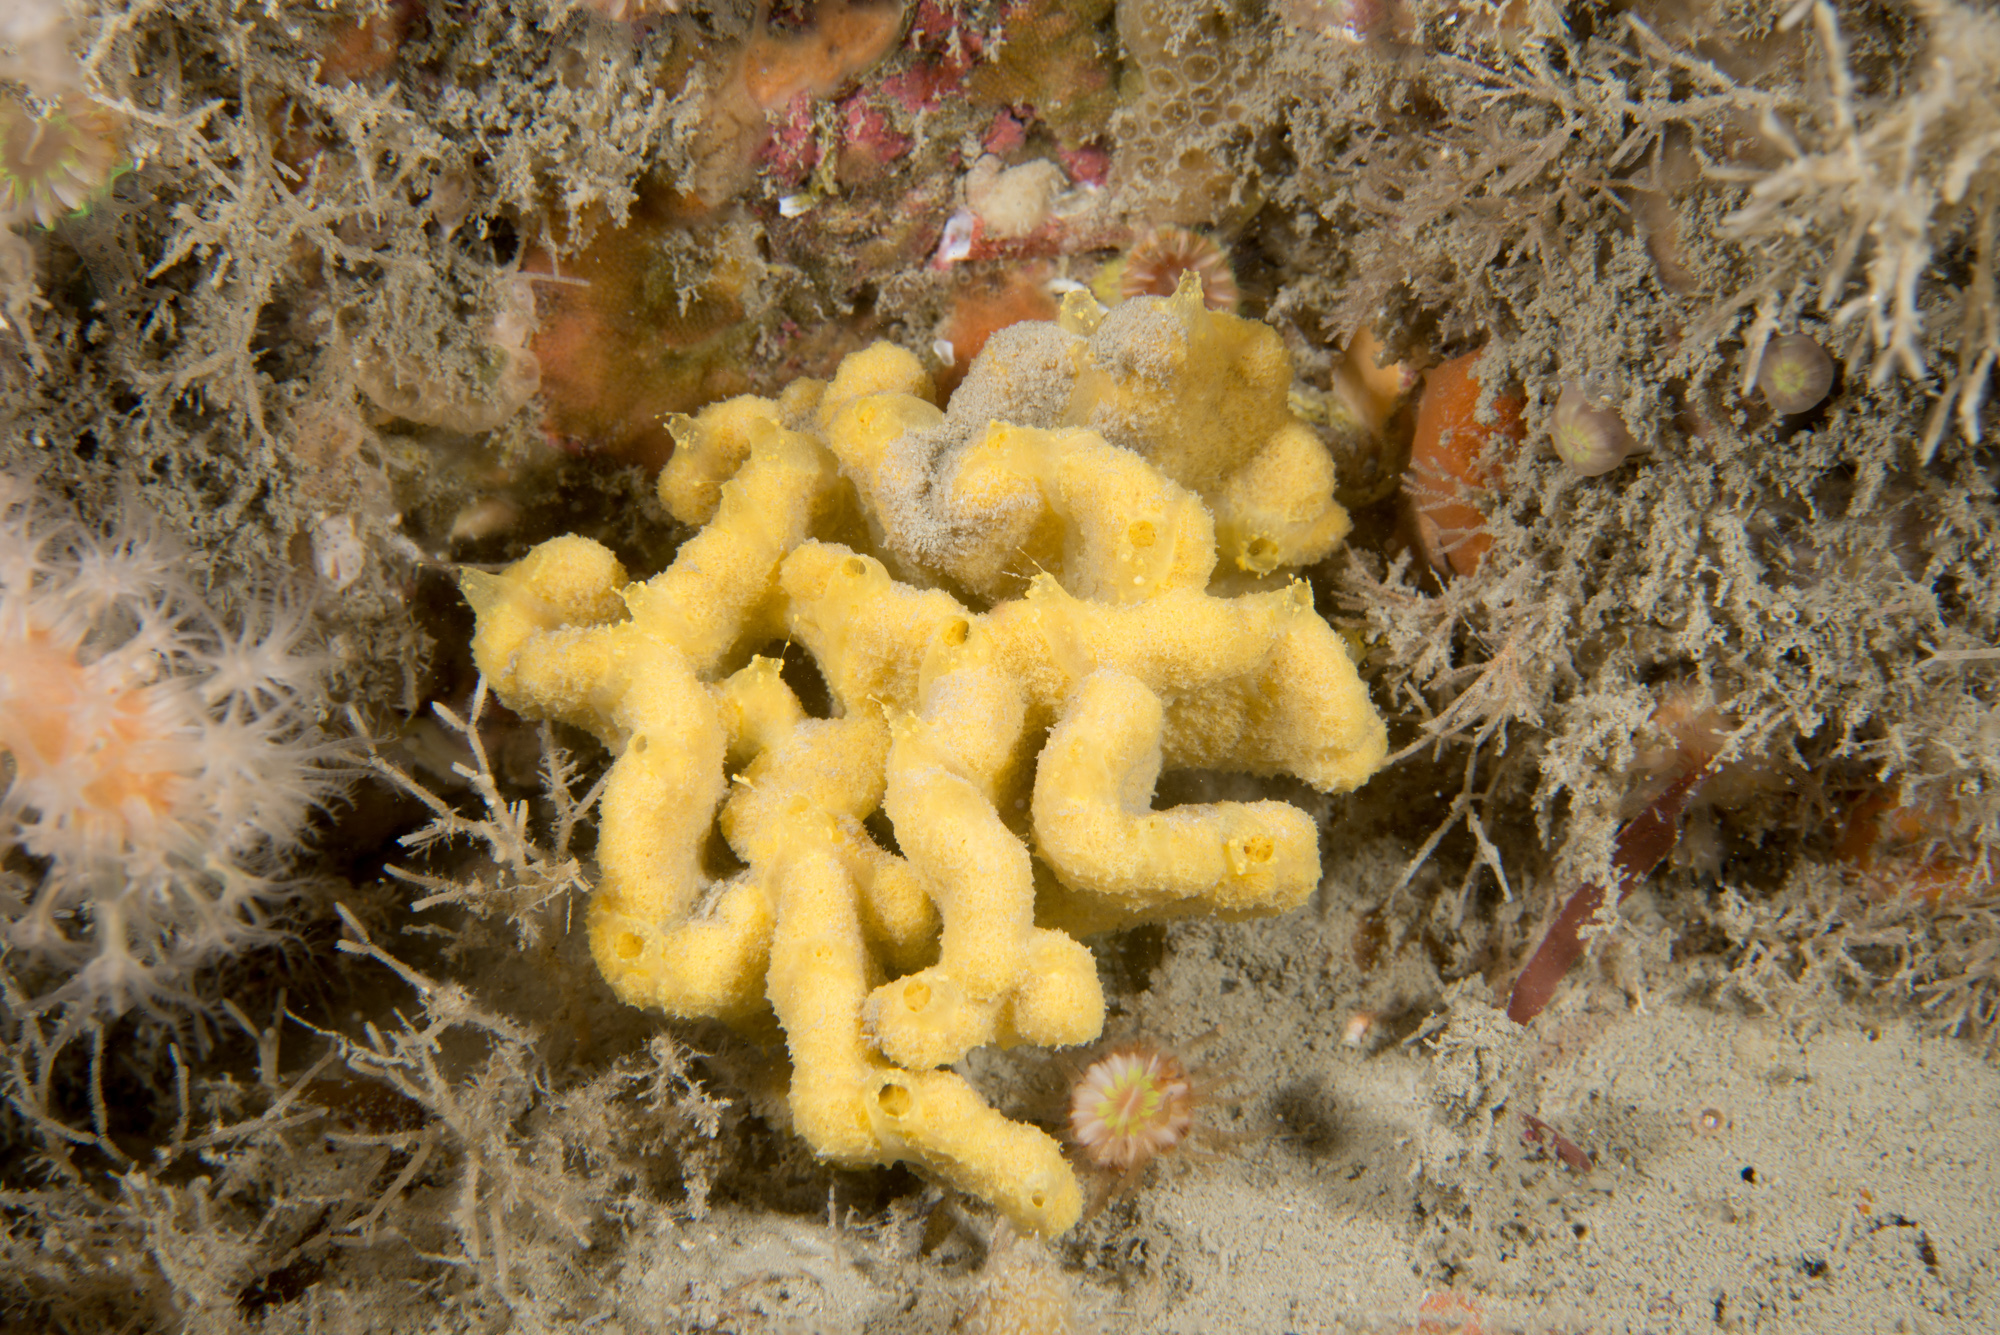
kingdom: Animalia
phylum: Porifera
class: Demospongiae
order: Axinellida
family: Axinellidae
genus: Axinella
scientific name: Axinella damicornis
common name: Crumpled duster sponge
